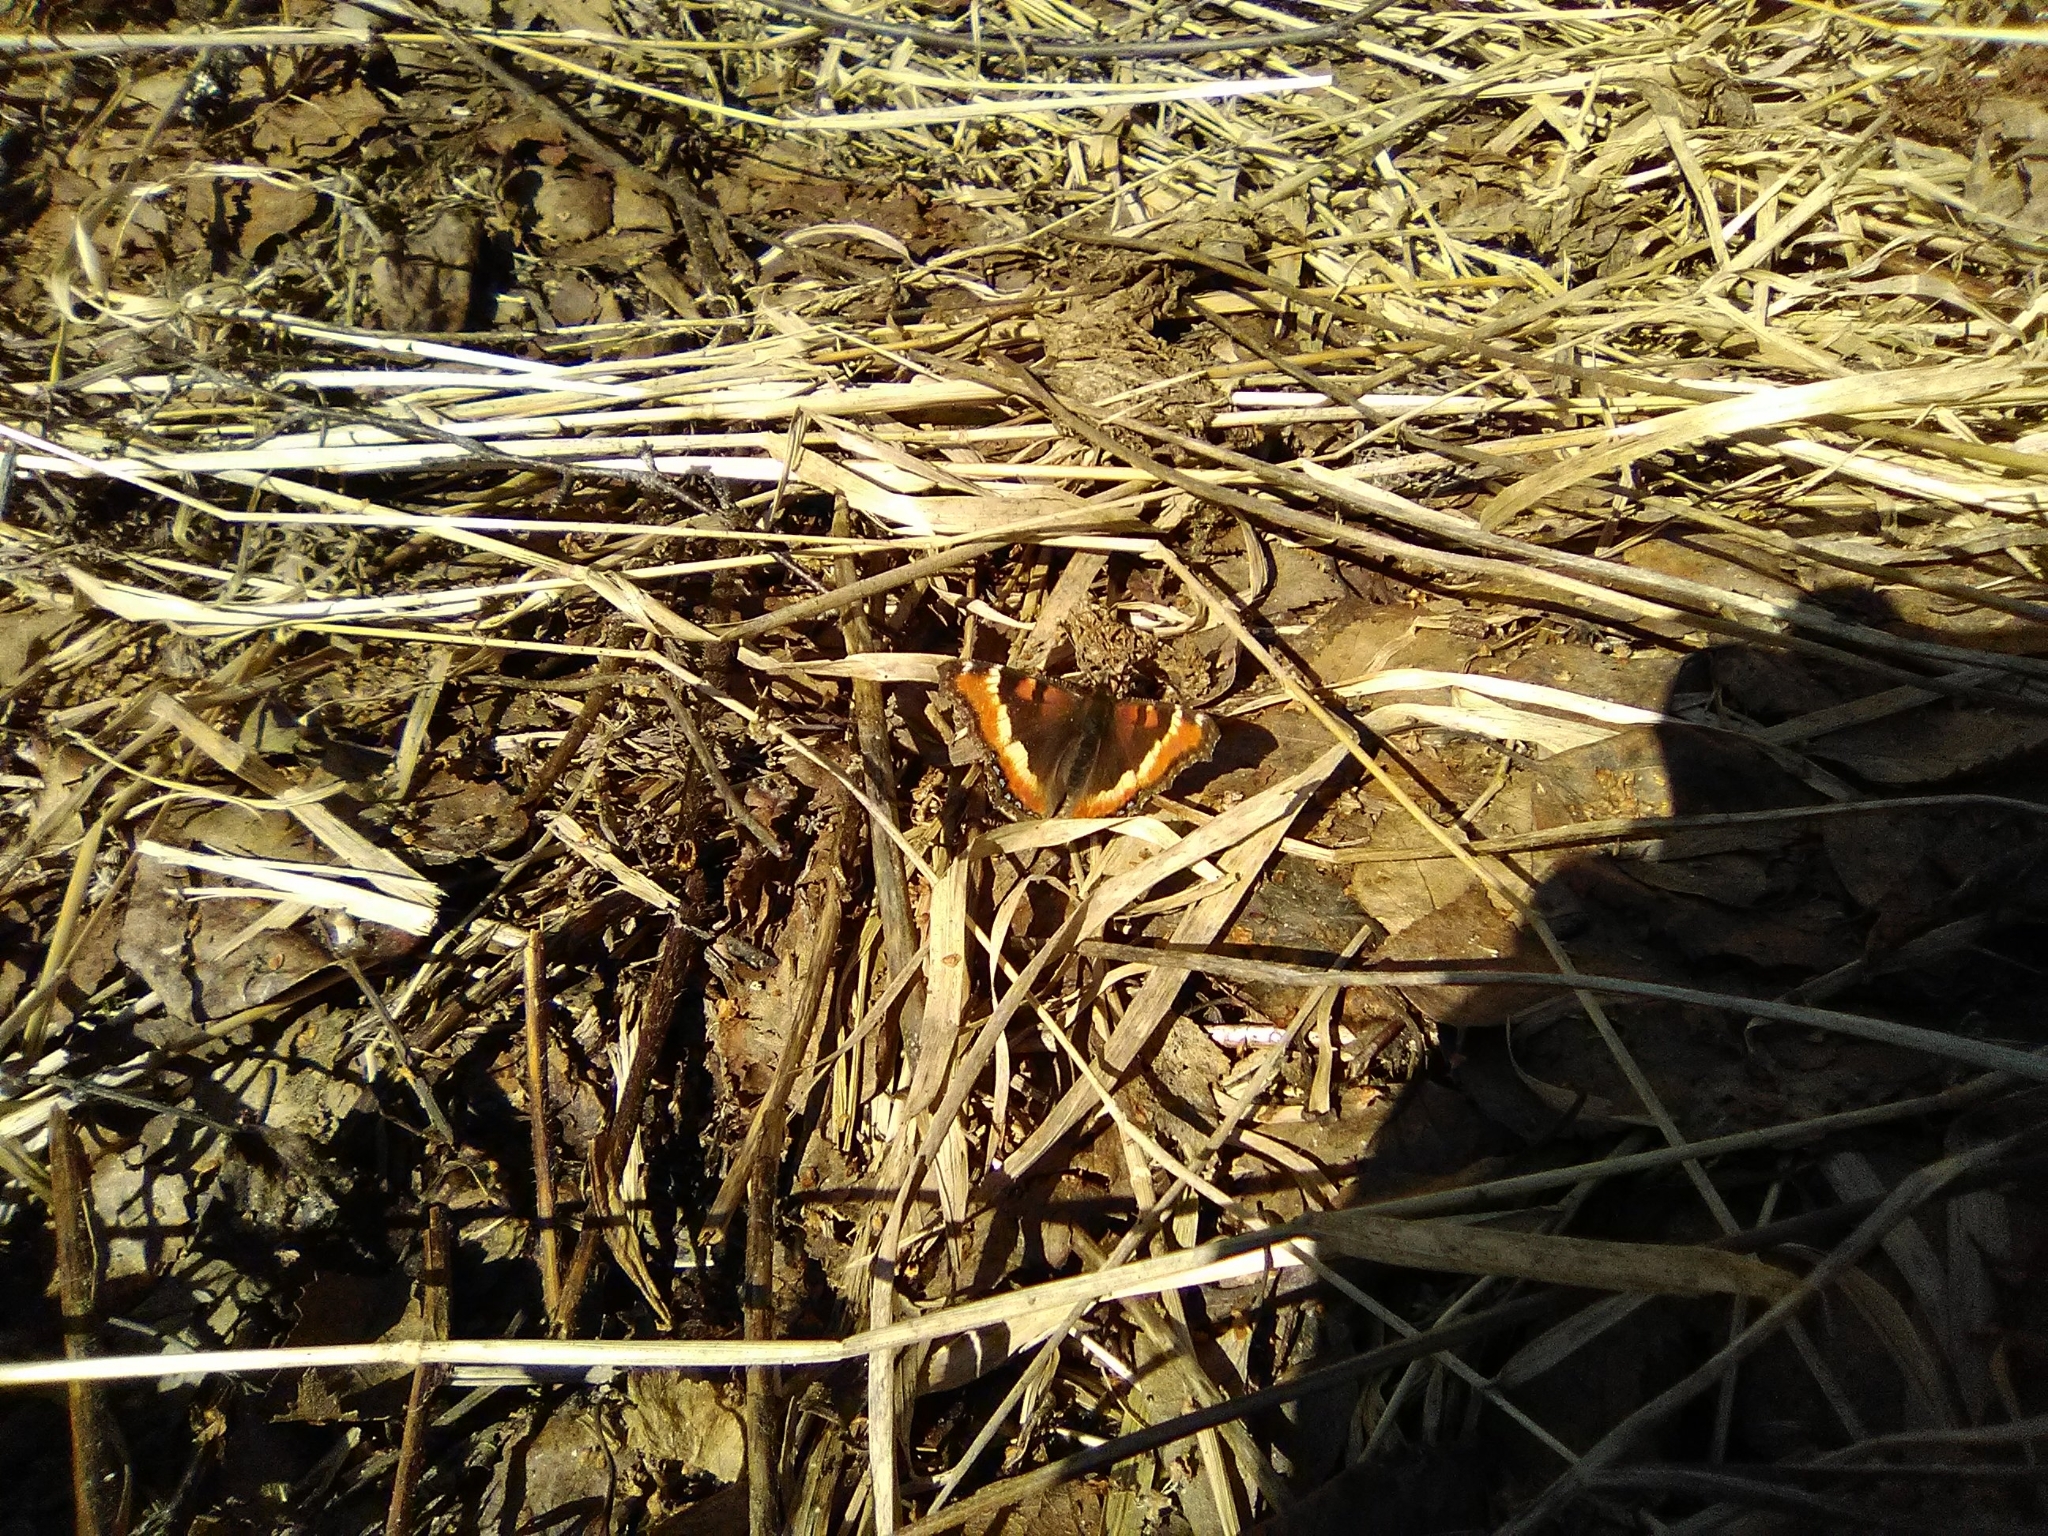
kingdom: Animalia
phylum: Arthropoda
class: Insecta
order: Lepidoptera
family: Nymphalidae
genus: Aglais
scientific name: Aglais milberti
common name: Milbert's tortoiseshell
